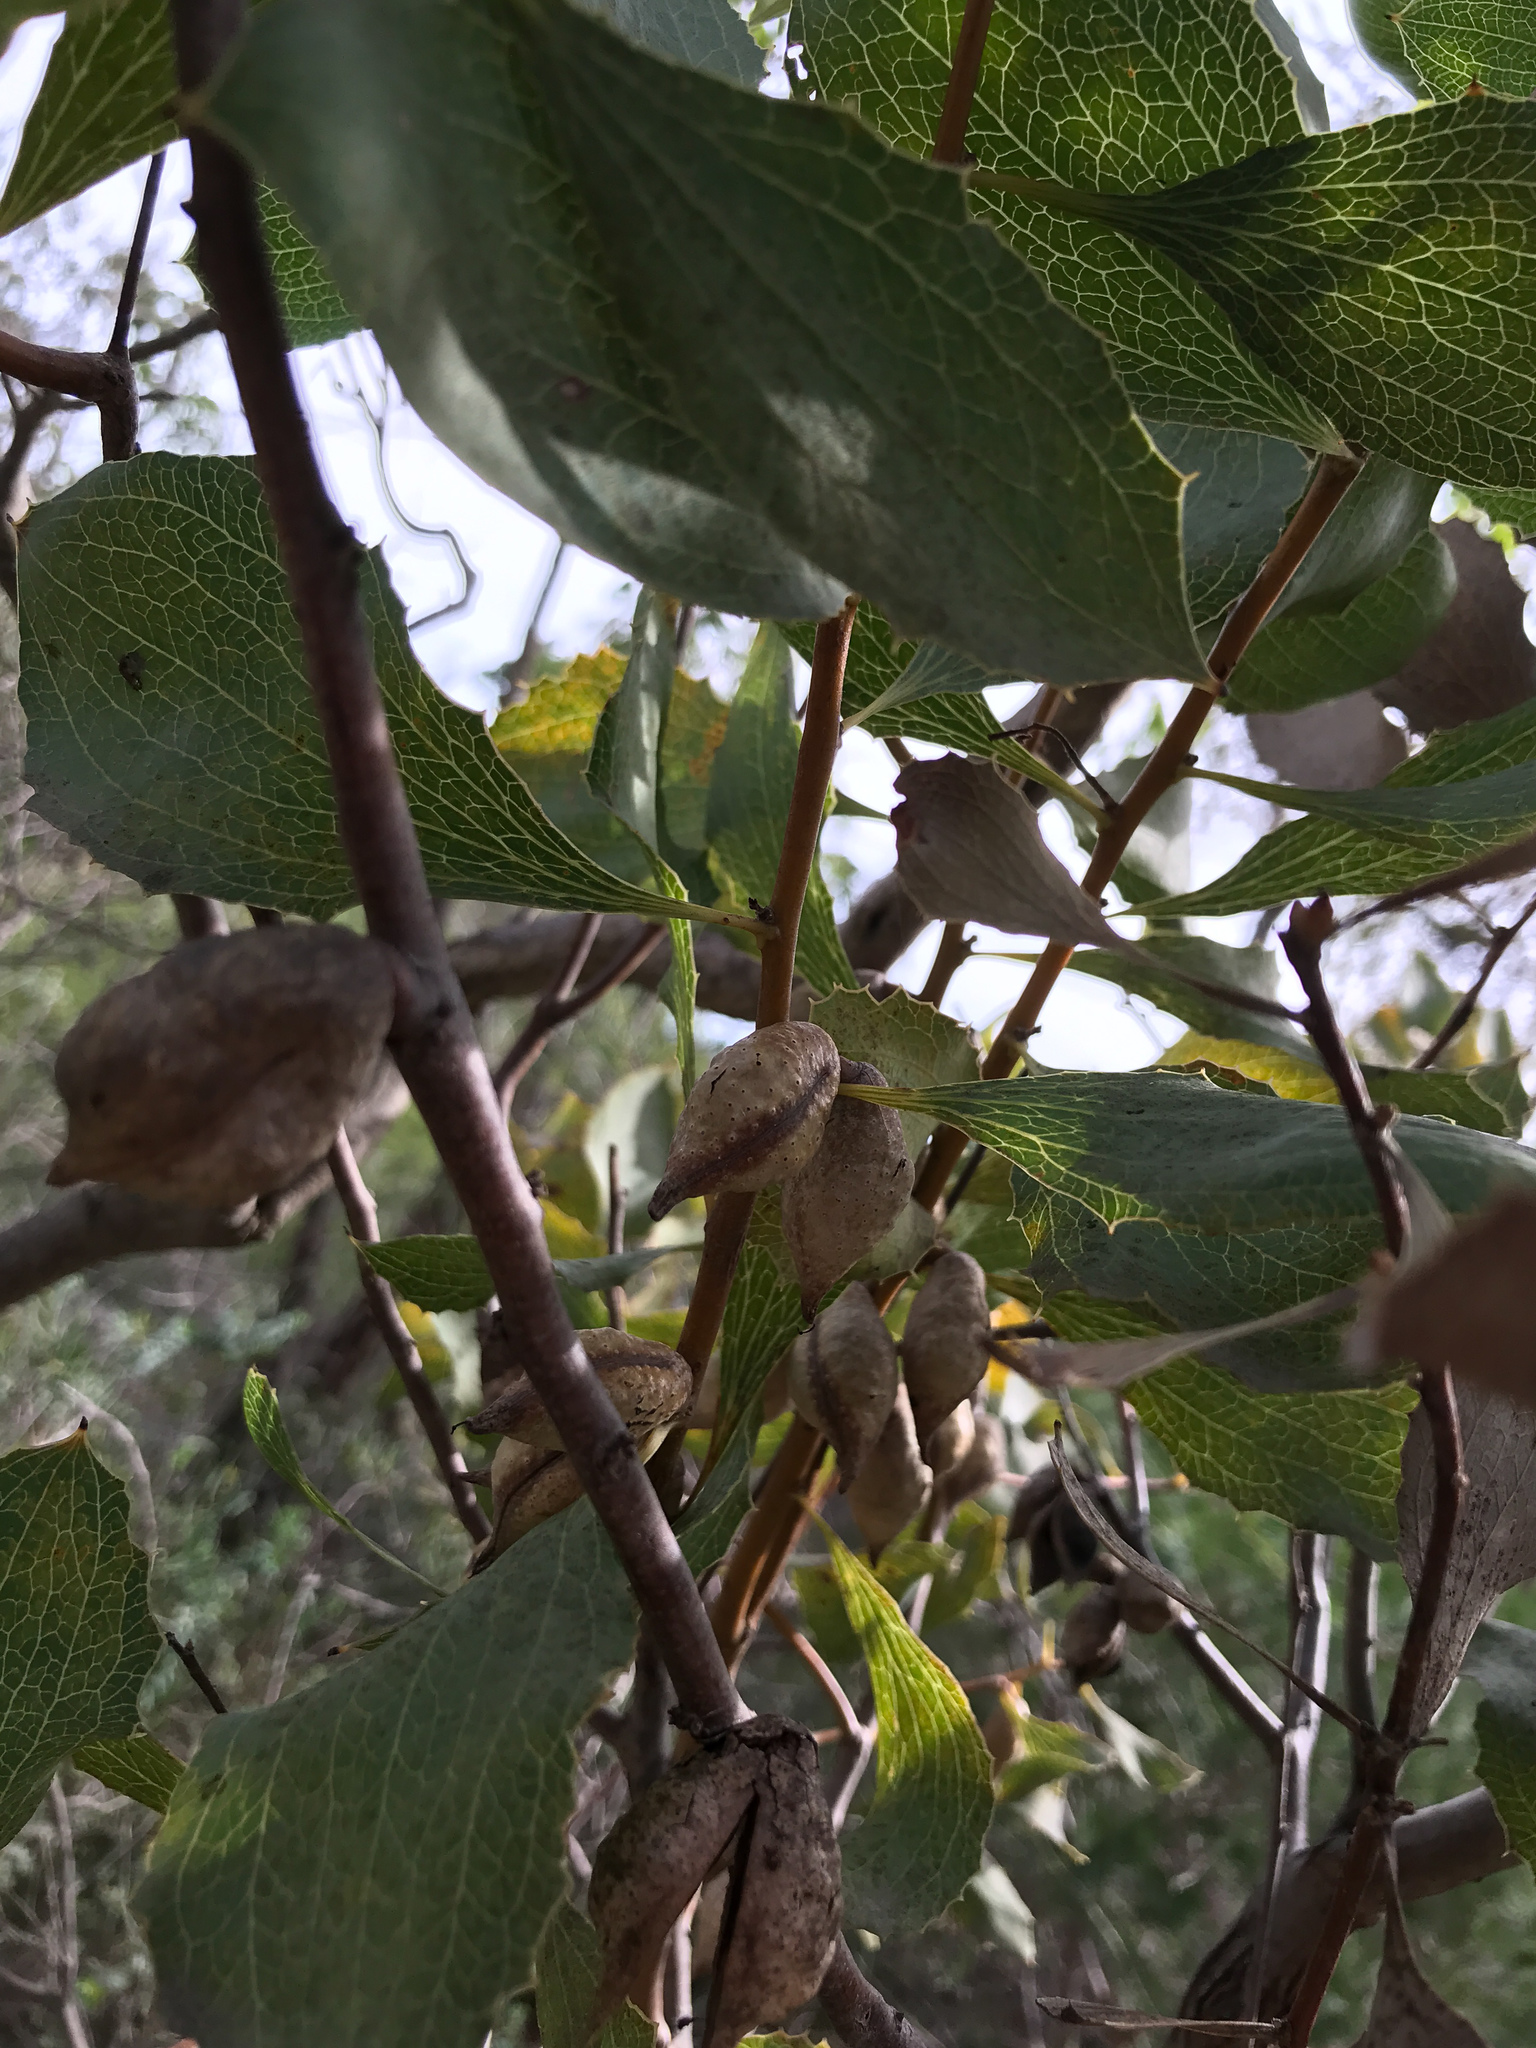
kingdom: Plantae
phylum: Tracheophyta
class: Magnoliopsida
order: Proteales
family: Proteaceae
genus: Hakea
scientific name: Hakea undulata
